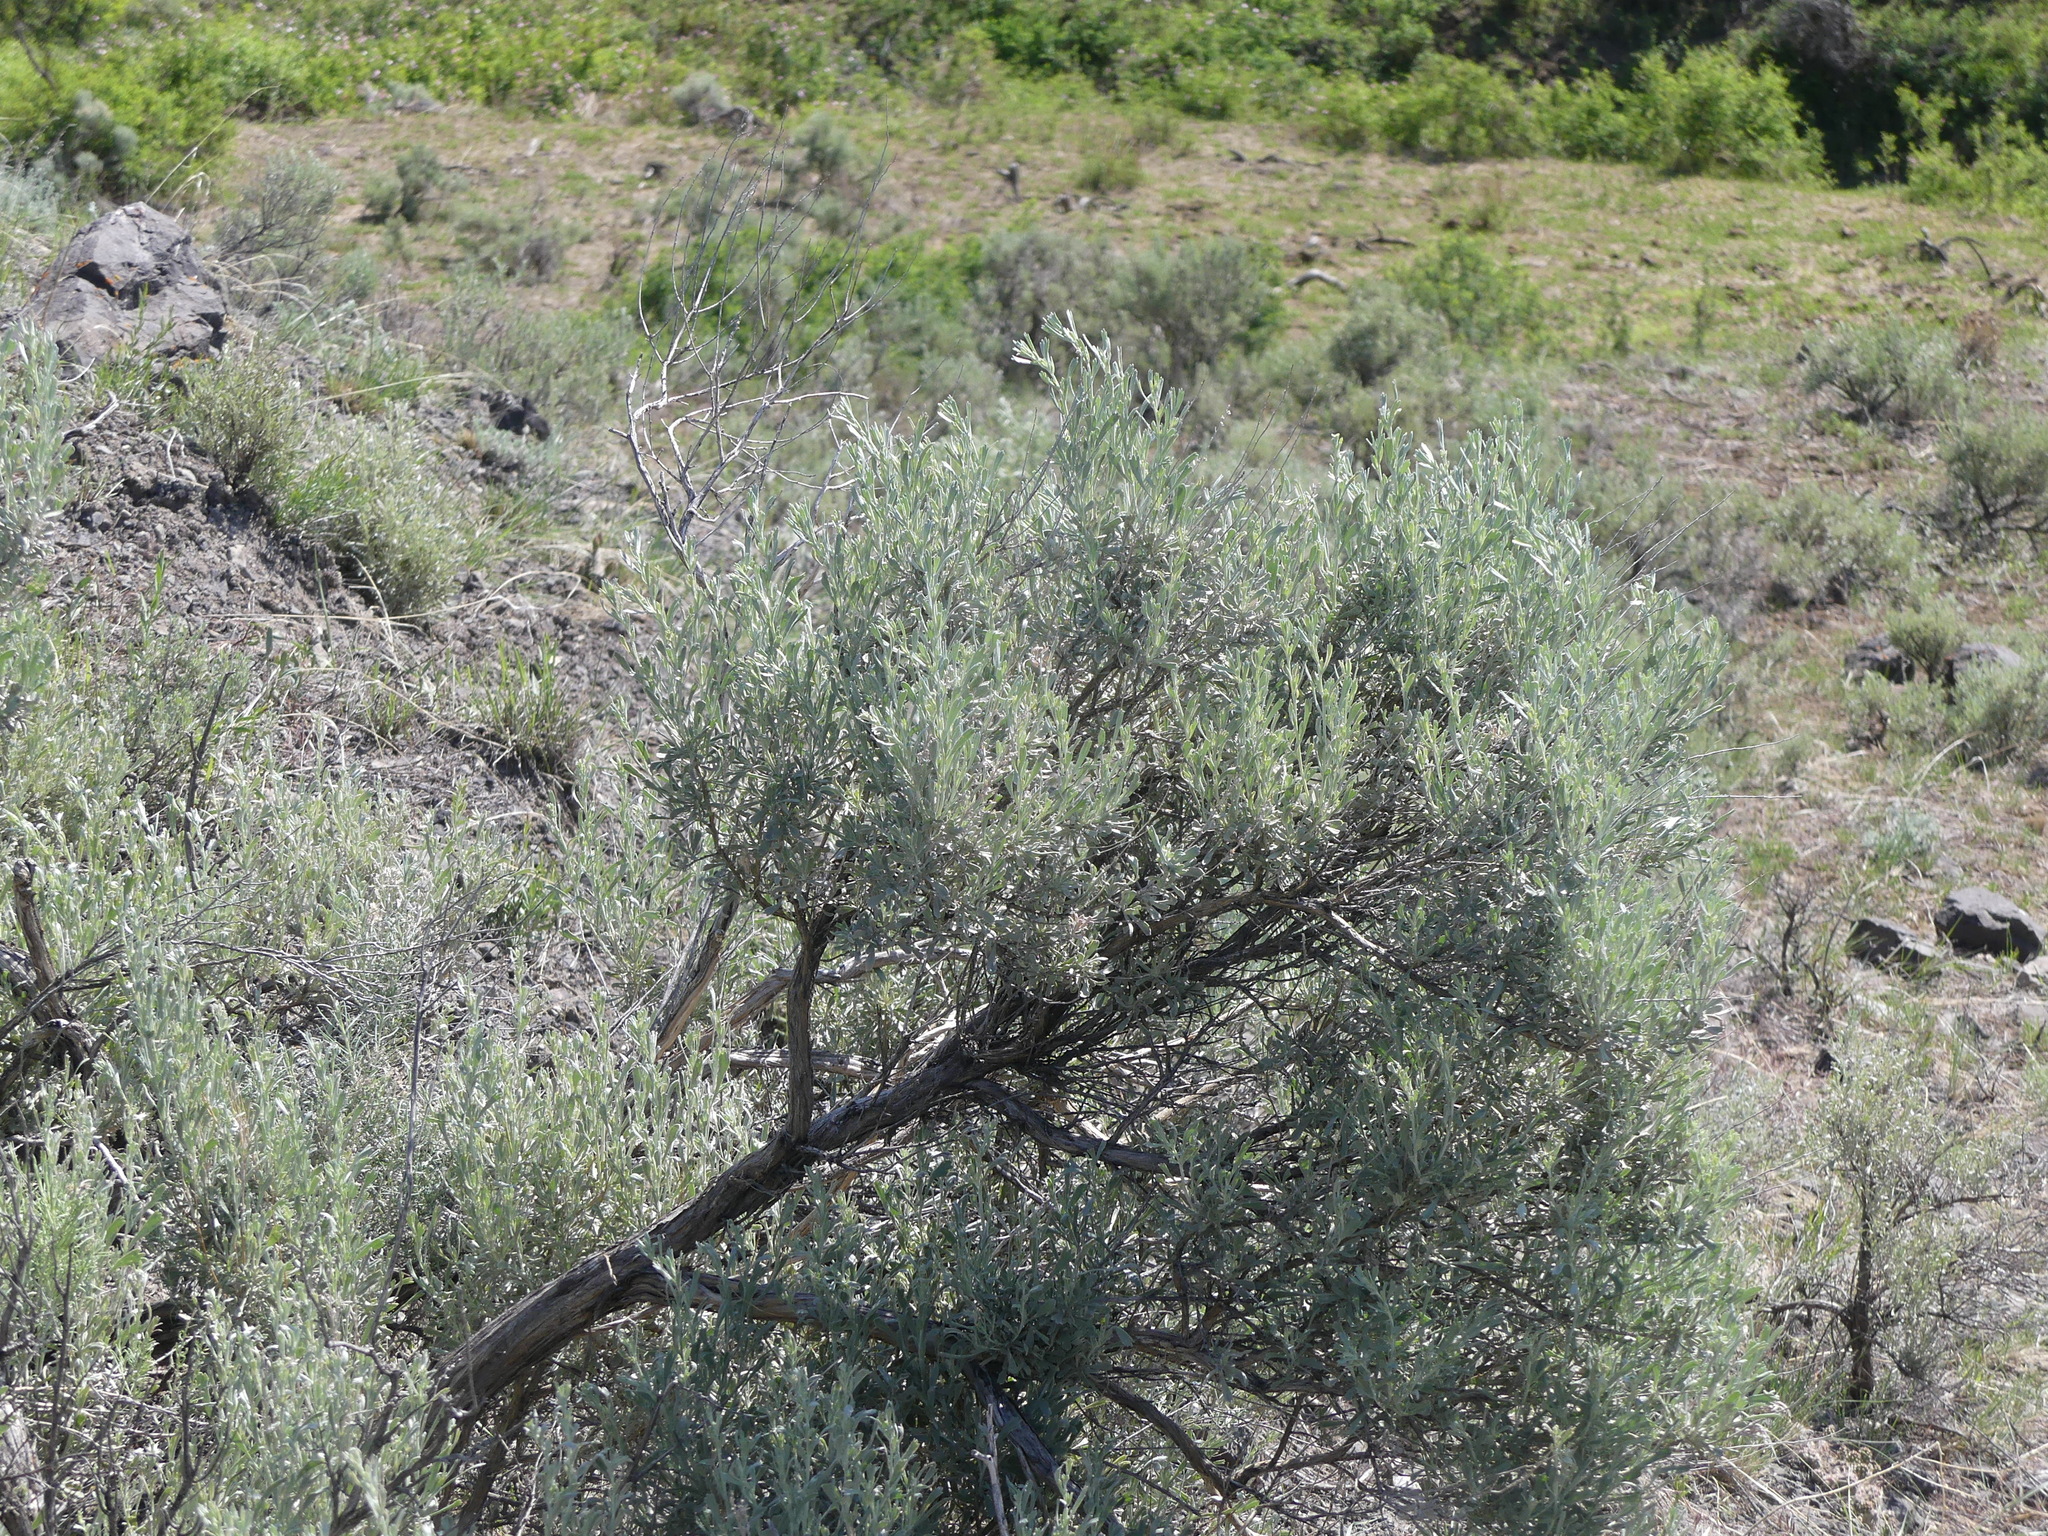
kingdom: Plantae
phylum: Tracheophyta
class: Magnoliopsida
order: Asterales
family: Asteraceae
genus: Artemisia
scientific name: Artemisia tridentata
